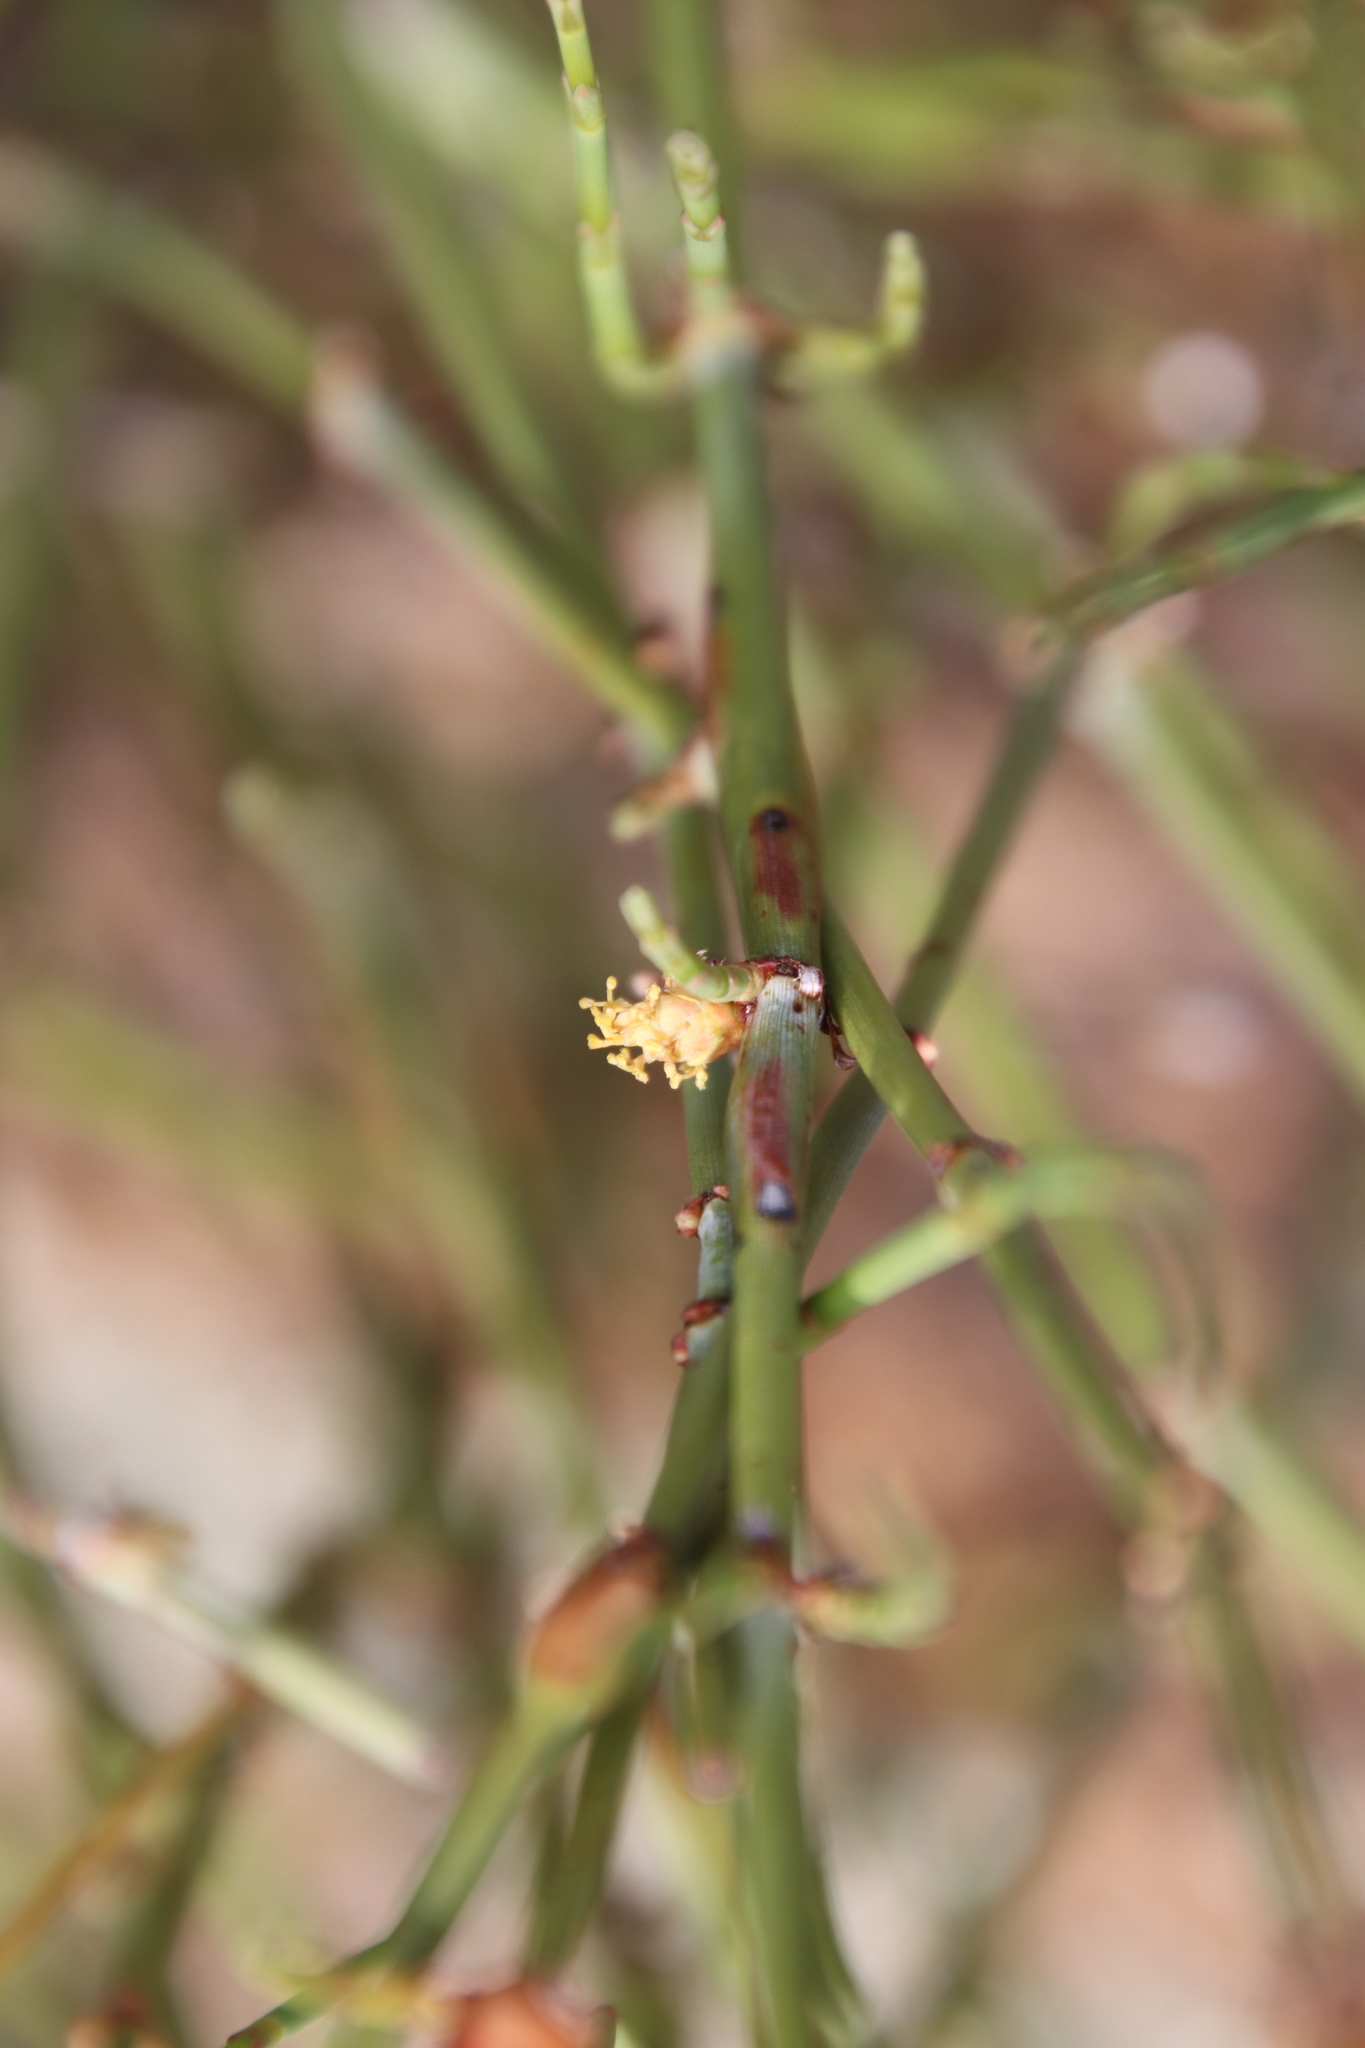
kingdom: Plantae
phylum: Tracheophyta
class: Gnetopsida
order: Ephedrales
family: Ephedraceae
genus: Ephedra
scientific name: Ephedra californica
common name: California ephedra
